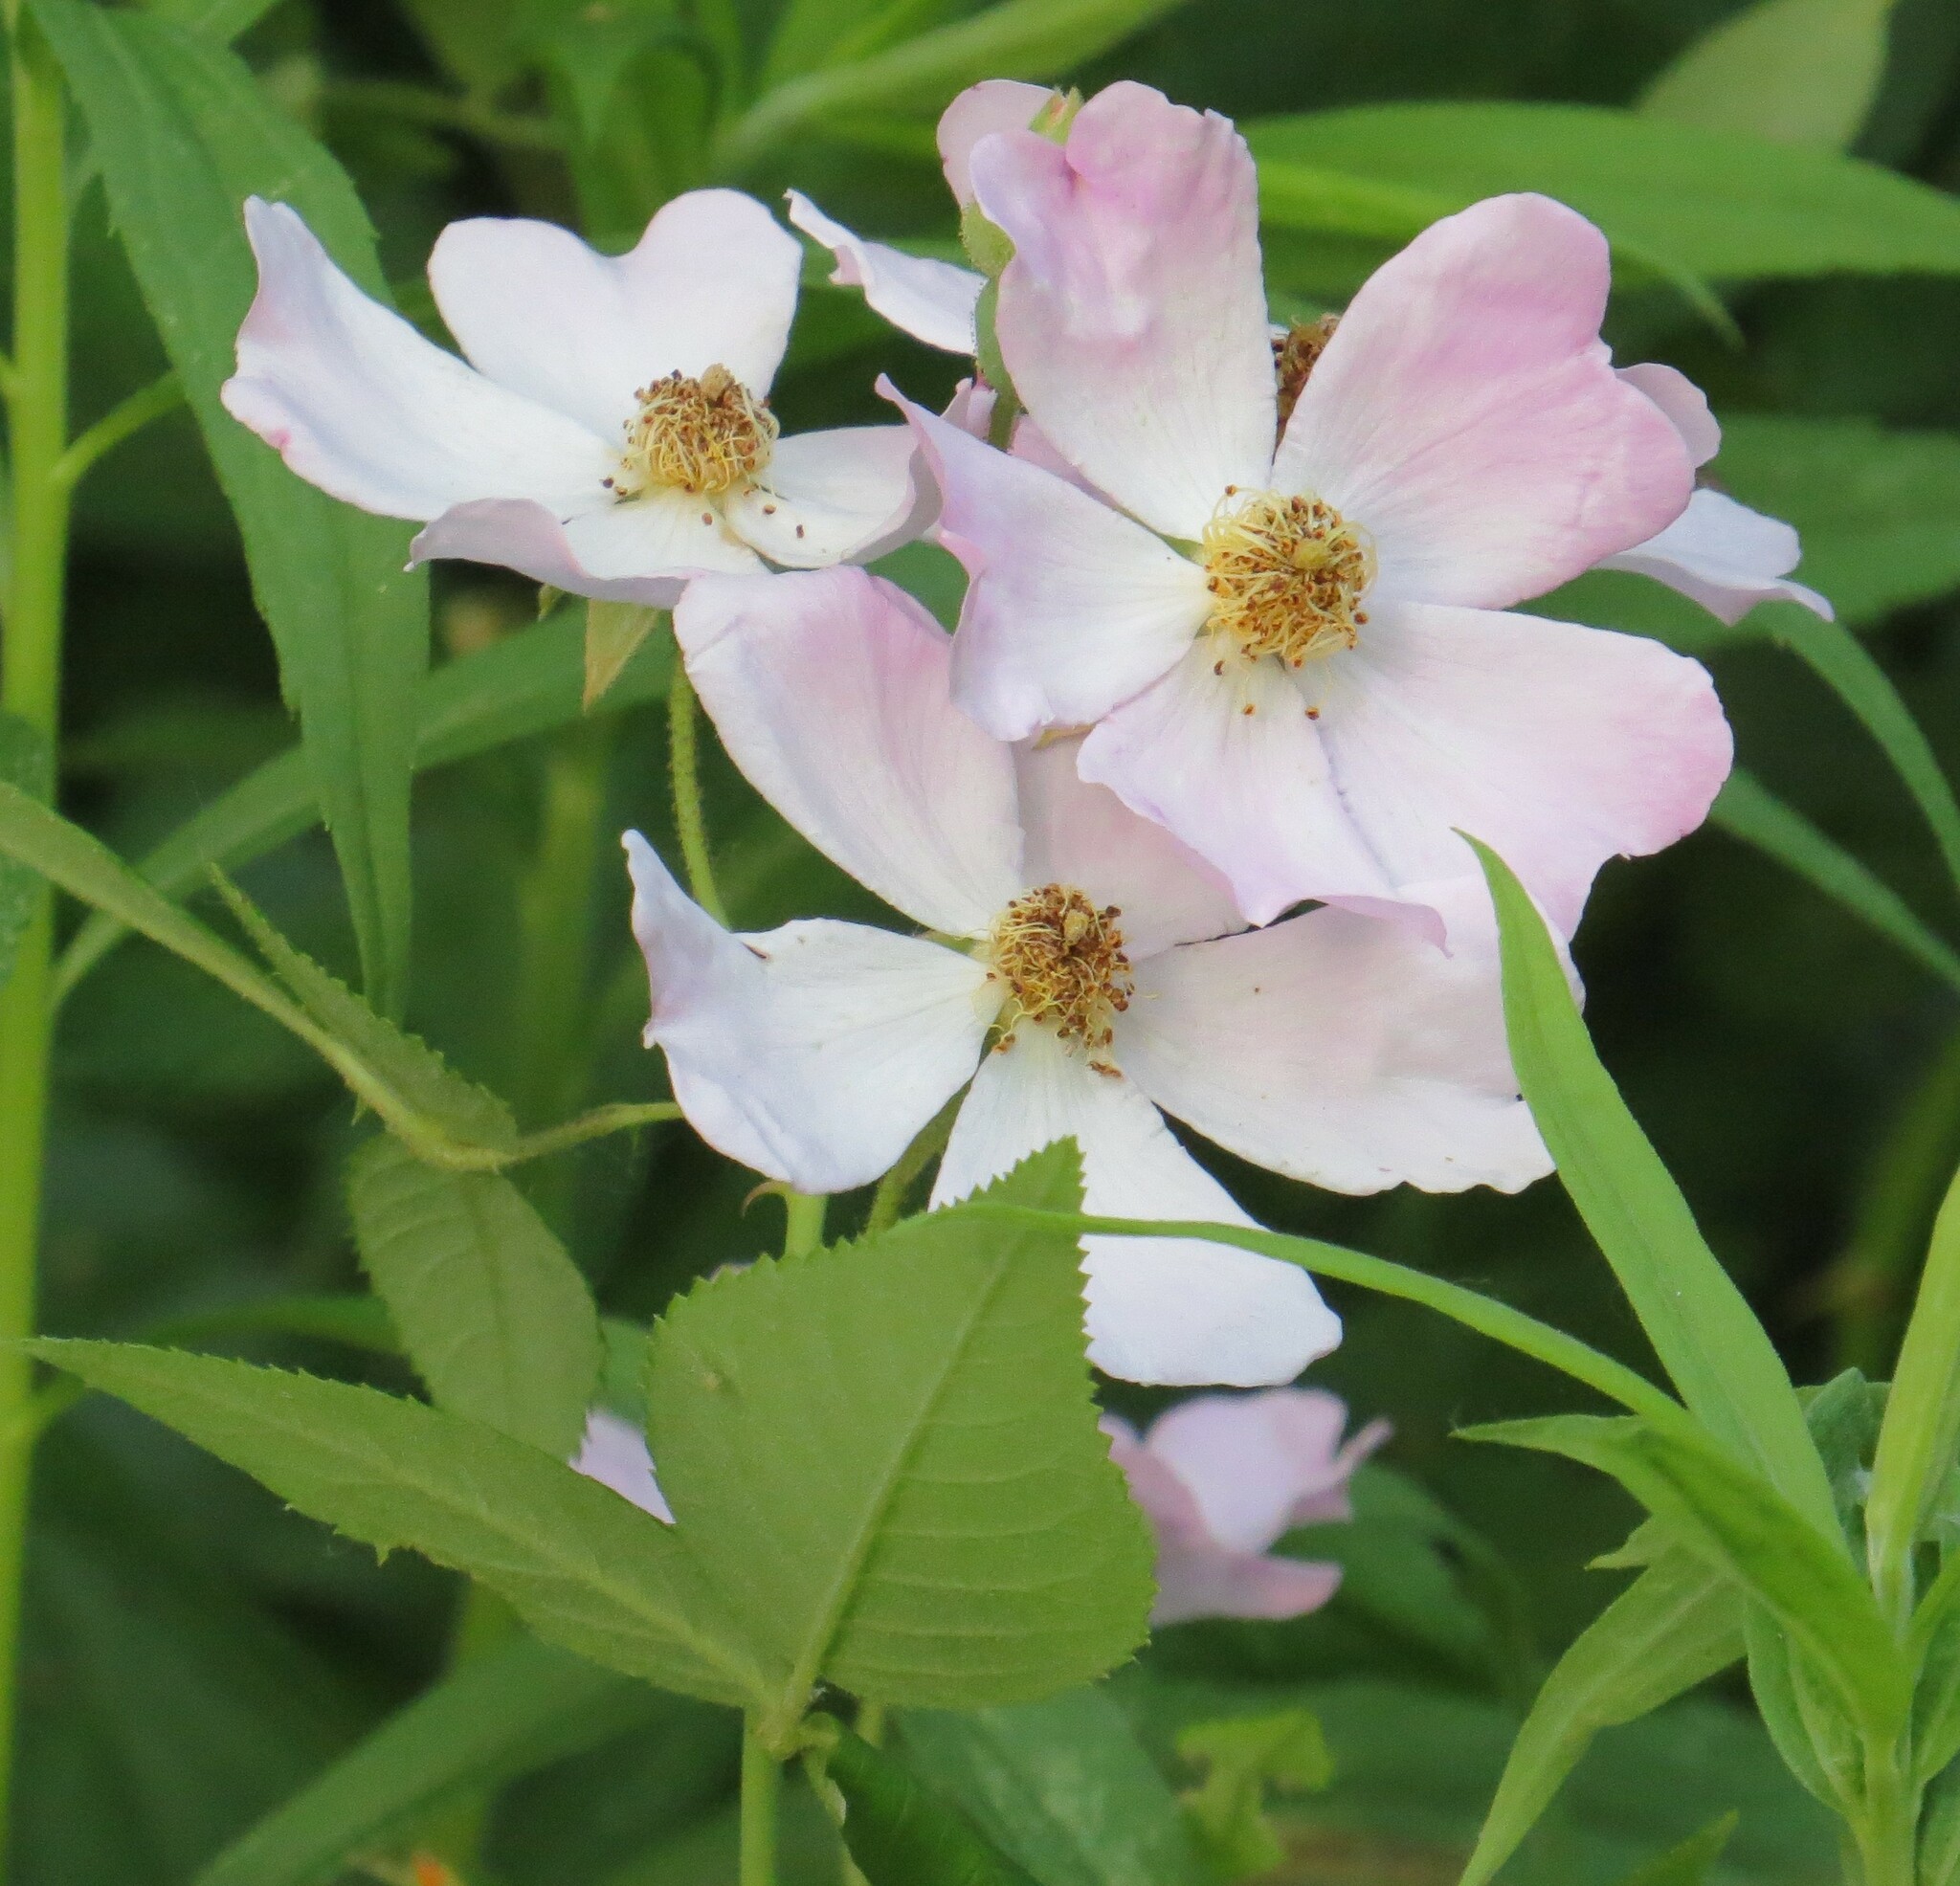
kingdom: Plantae
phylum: Tracheophyta
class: Magnoliopsida
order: Rosales
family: Rosaceae
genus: Rosa
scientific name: Rosa carolina
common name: Pasture rose
